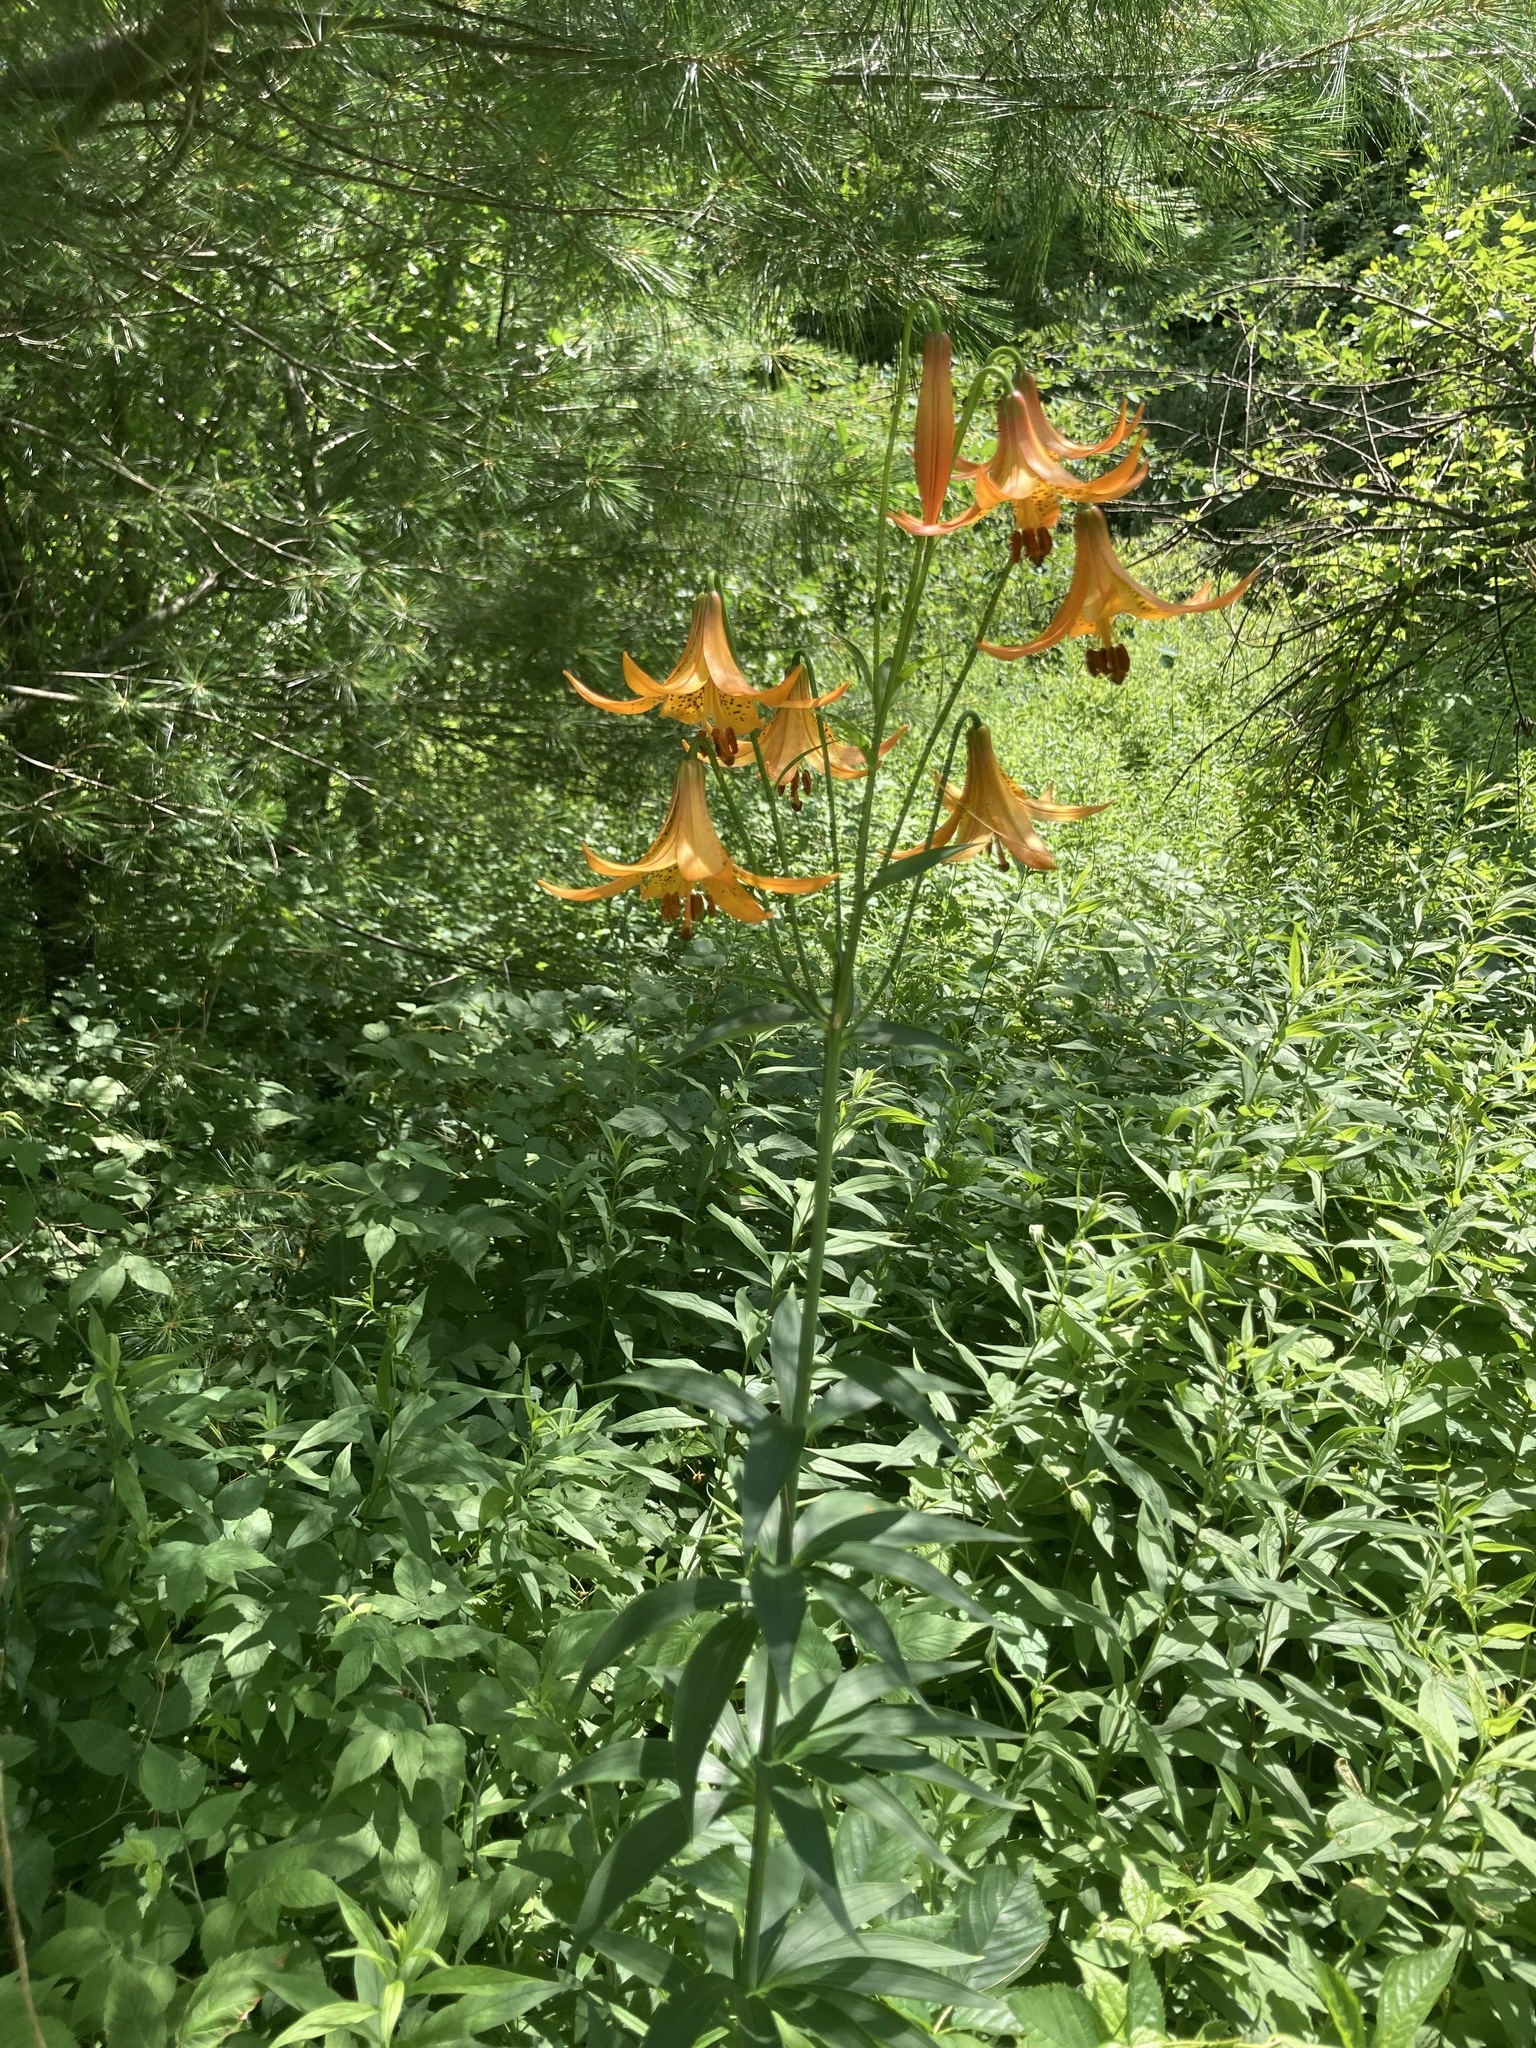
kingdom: Plantae
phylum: Tracheophyta
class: Liliopsida
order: Liliales
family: Liliaceae
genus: Lilium
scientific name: Lilium canadense
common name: Canada lily
